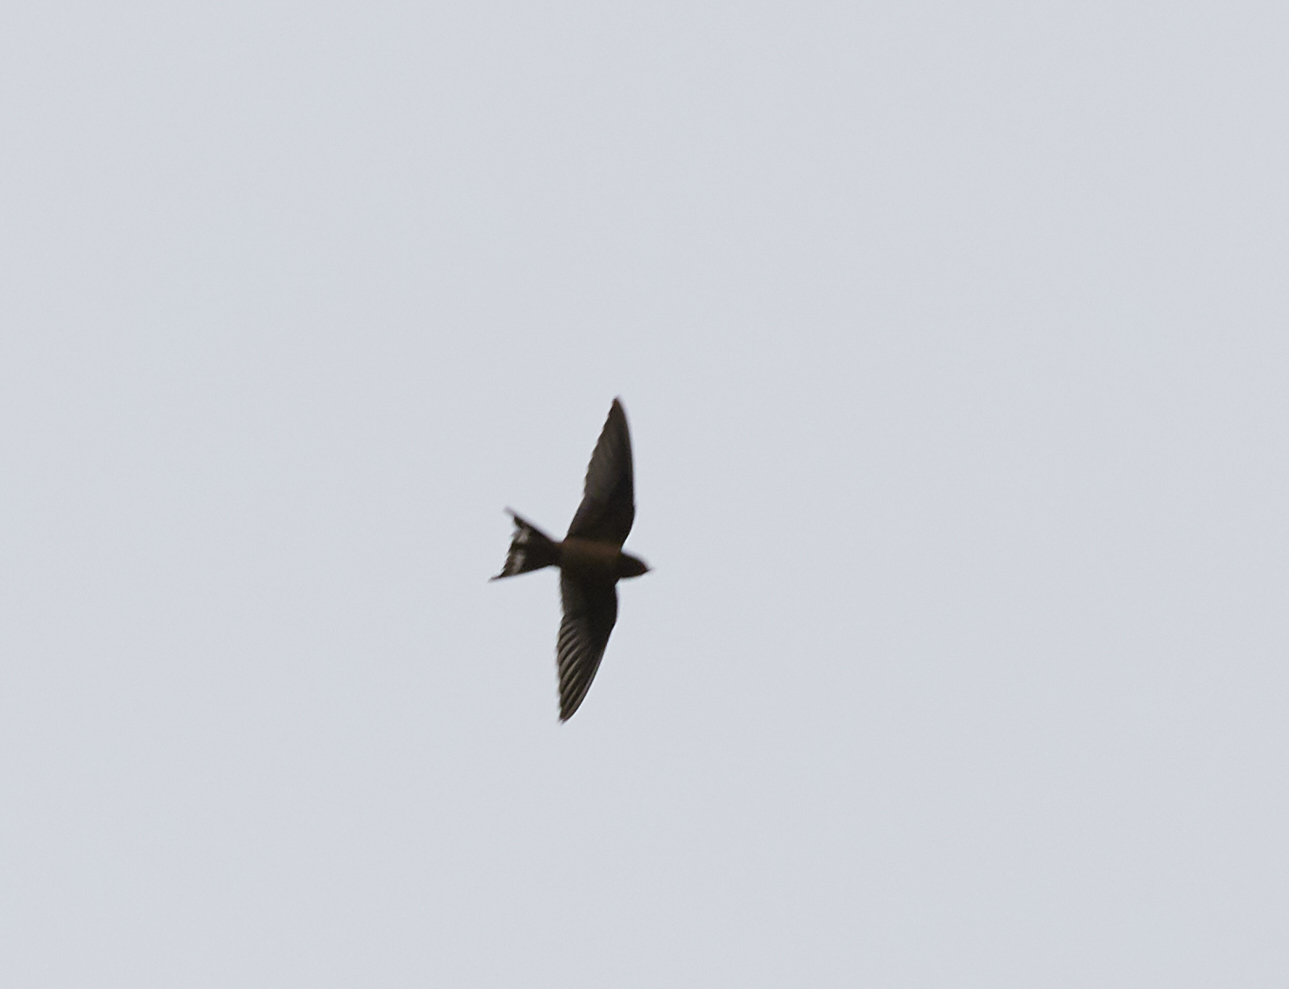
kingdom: Animalia
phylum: Chordata
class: Aves
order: Passeriformes
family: Hirundinidae
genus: Hirundo
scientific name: Hirundo rustica
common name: Barn swallow
